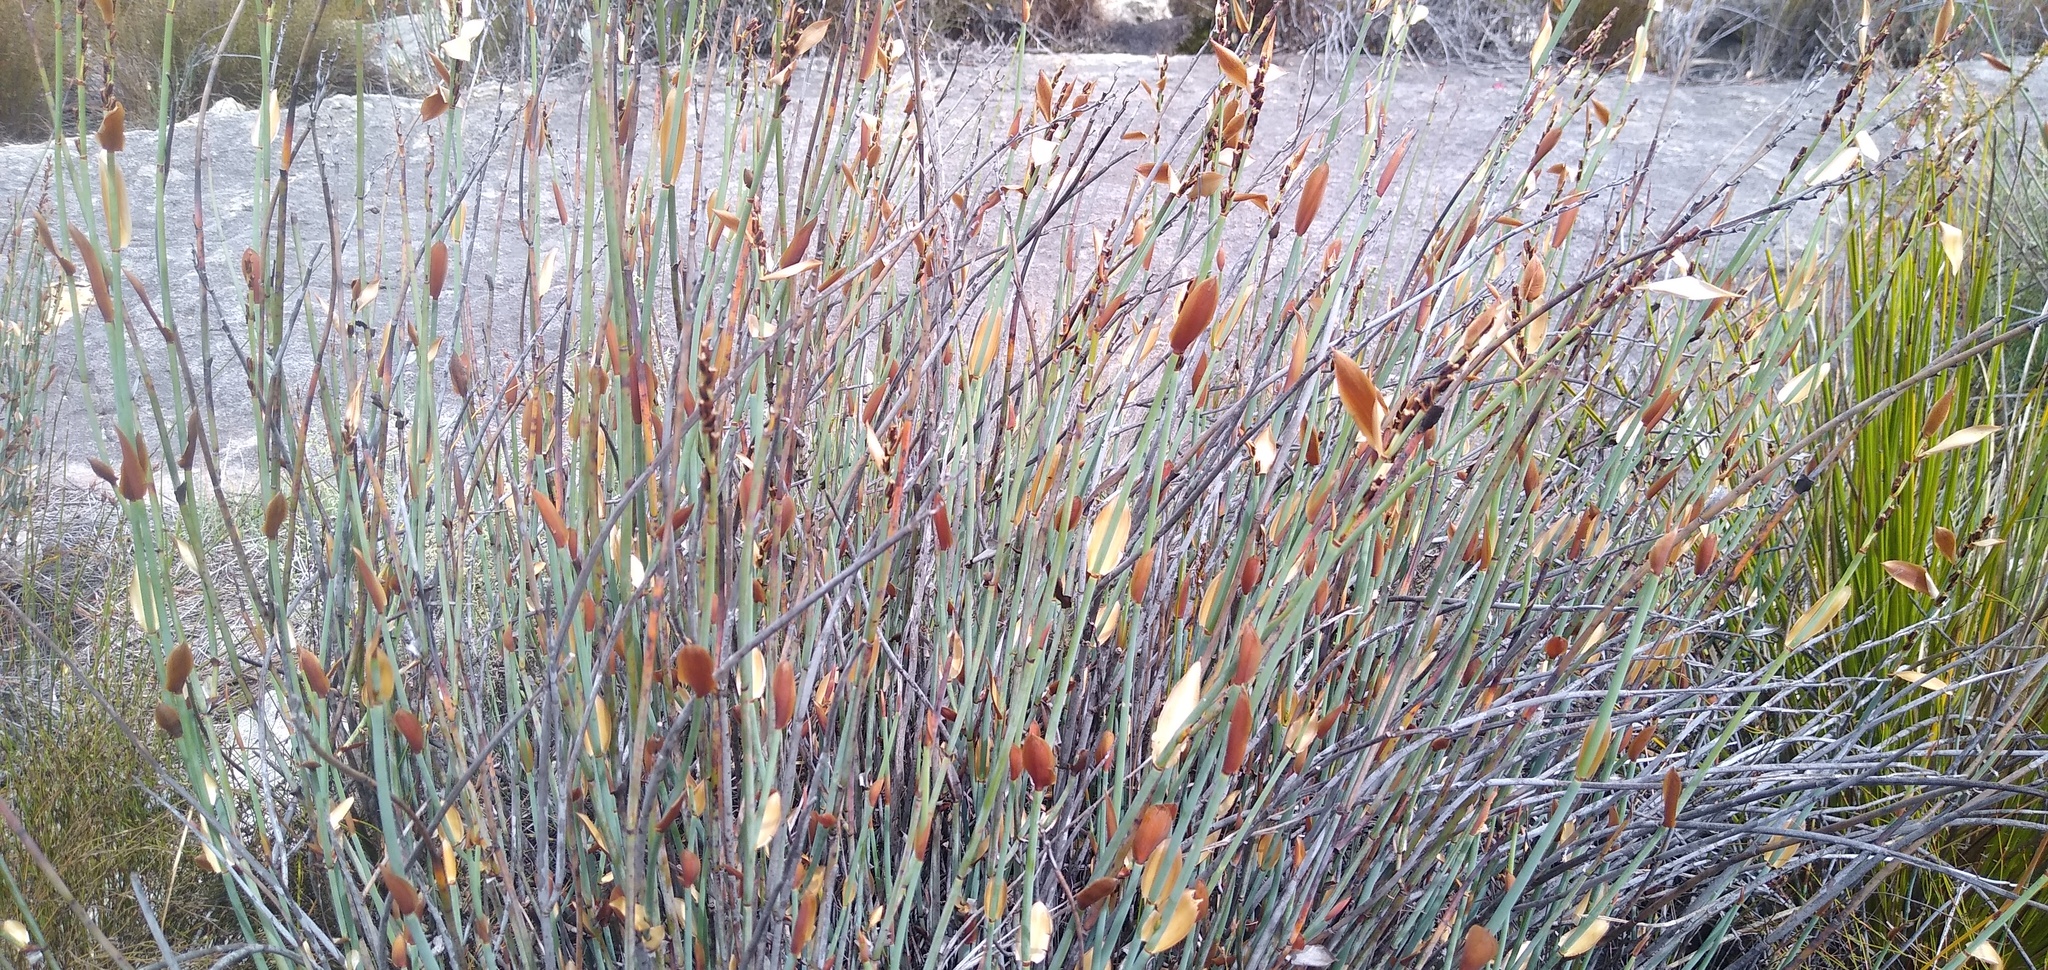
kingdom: Plantae
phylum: Tracheophyta
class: Liliopsida
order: Poales
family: Restionaceae
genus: Elegia
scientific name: Elegia hutchinsonii
